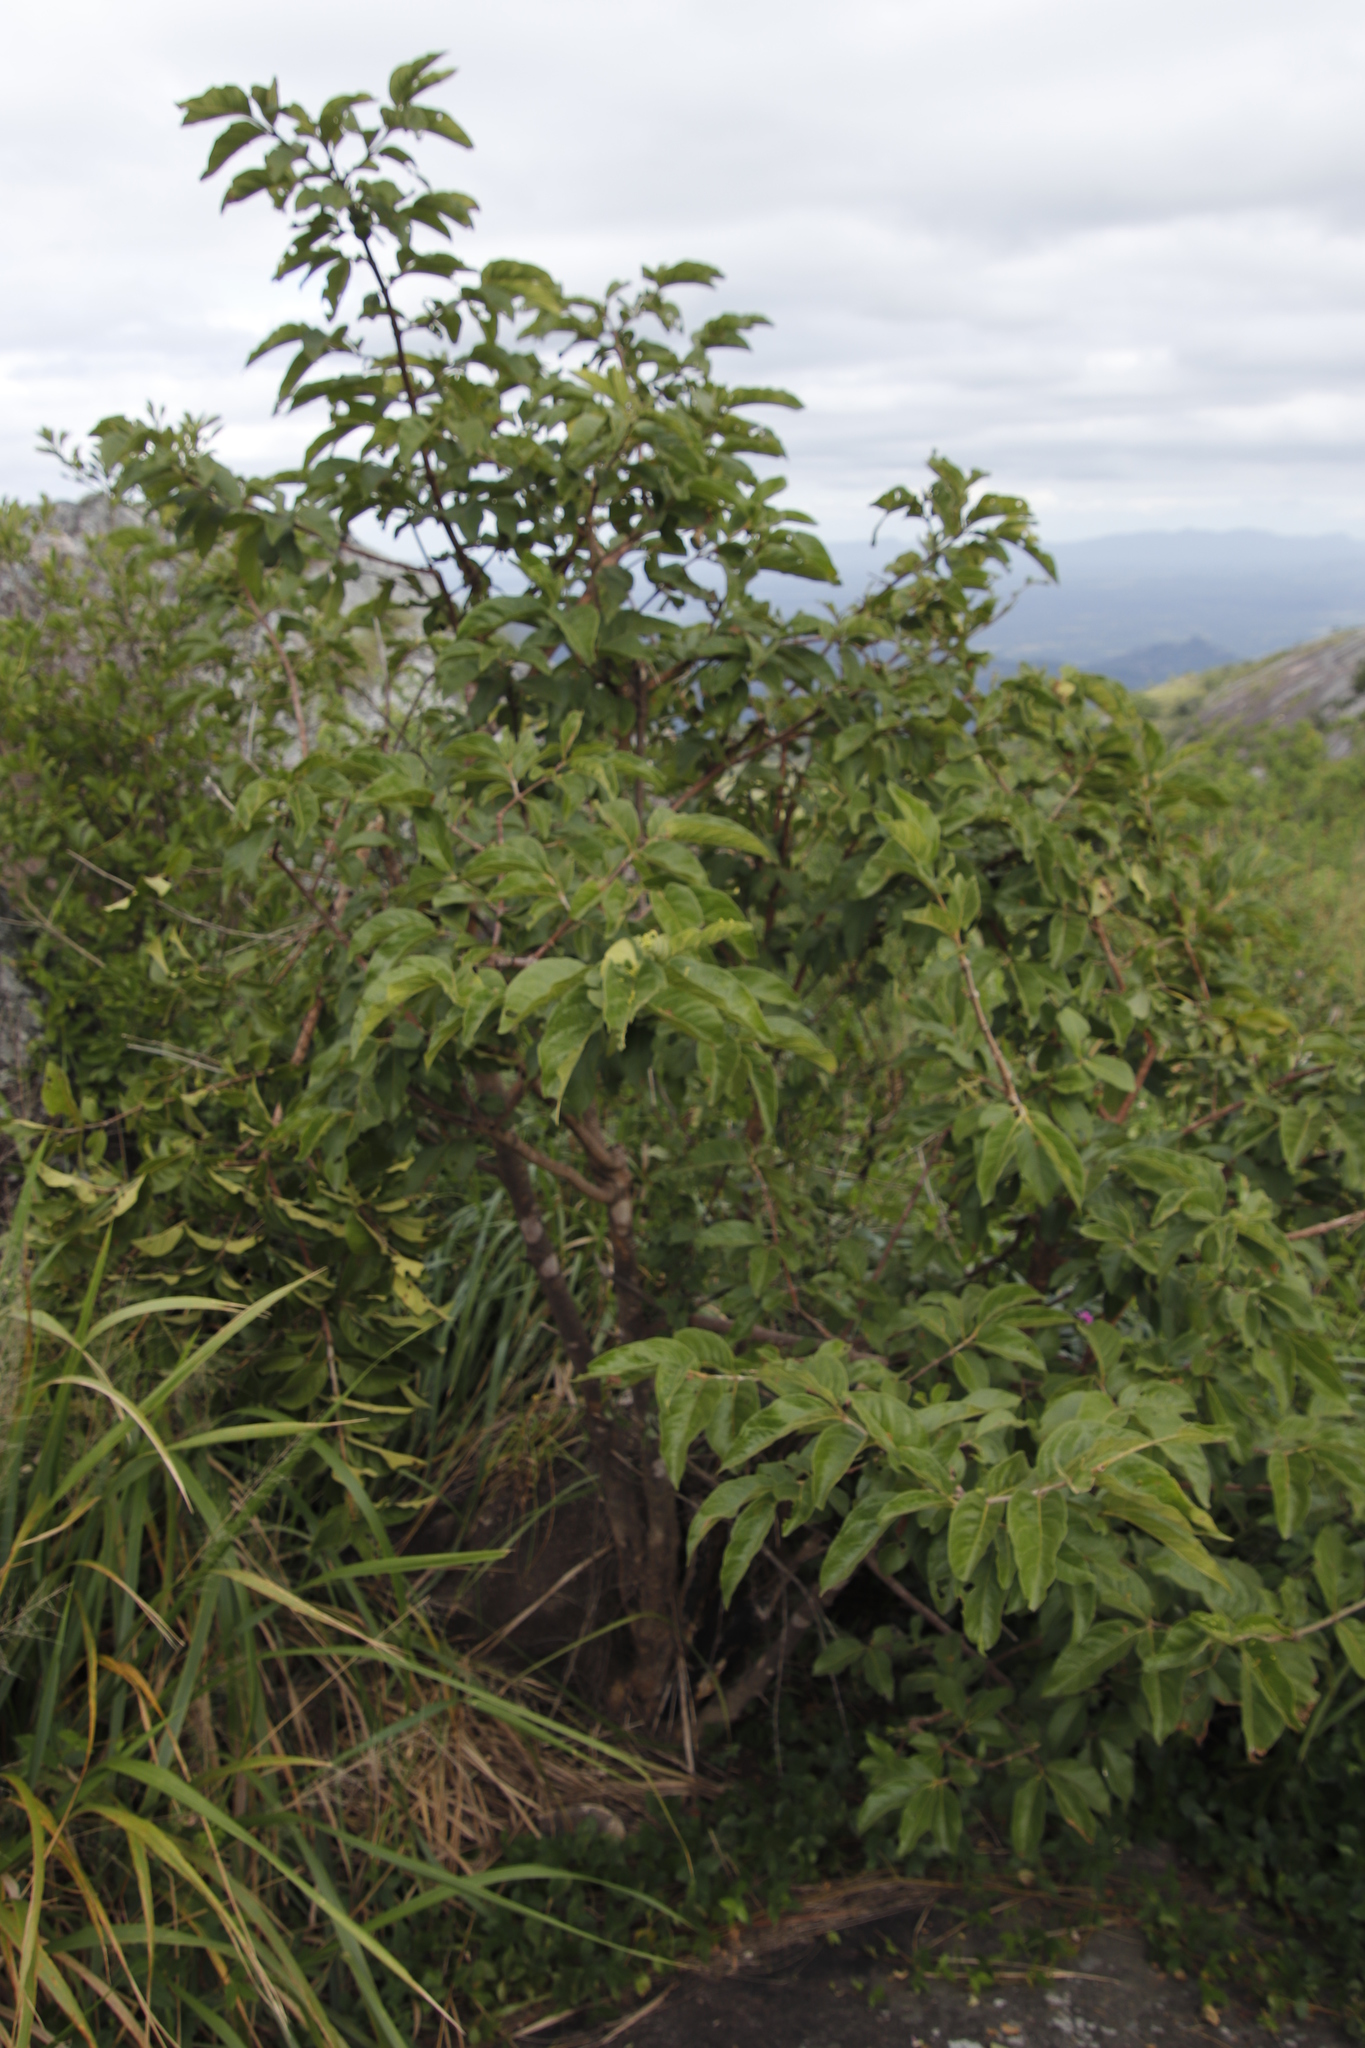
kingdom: Plantae
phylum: Tracheophyta
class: Magnoliopsida
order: Gentianales
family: Rubiaceae
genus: Vangueria
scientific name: Vangueria infausta
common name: Medlar
